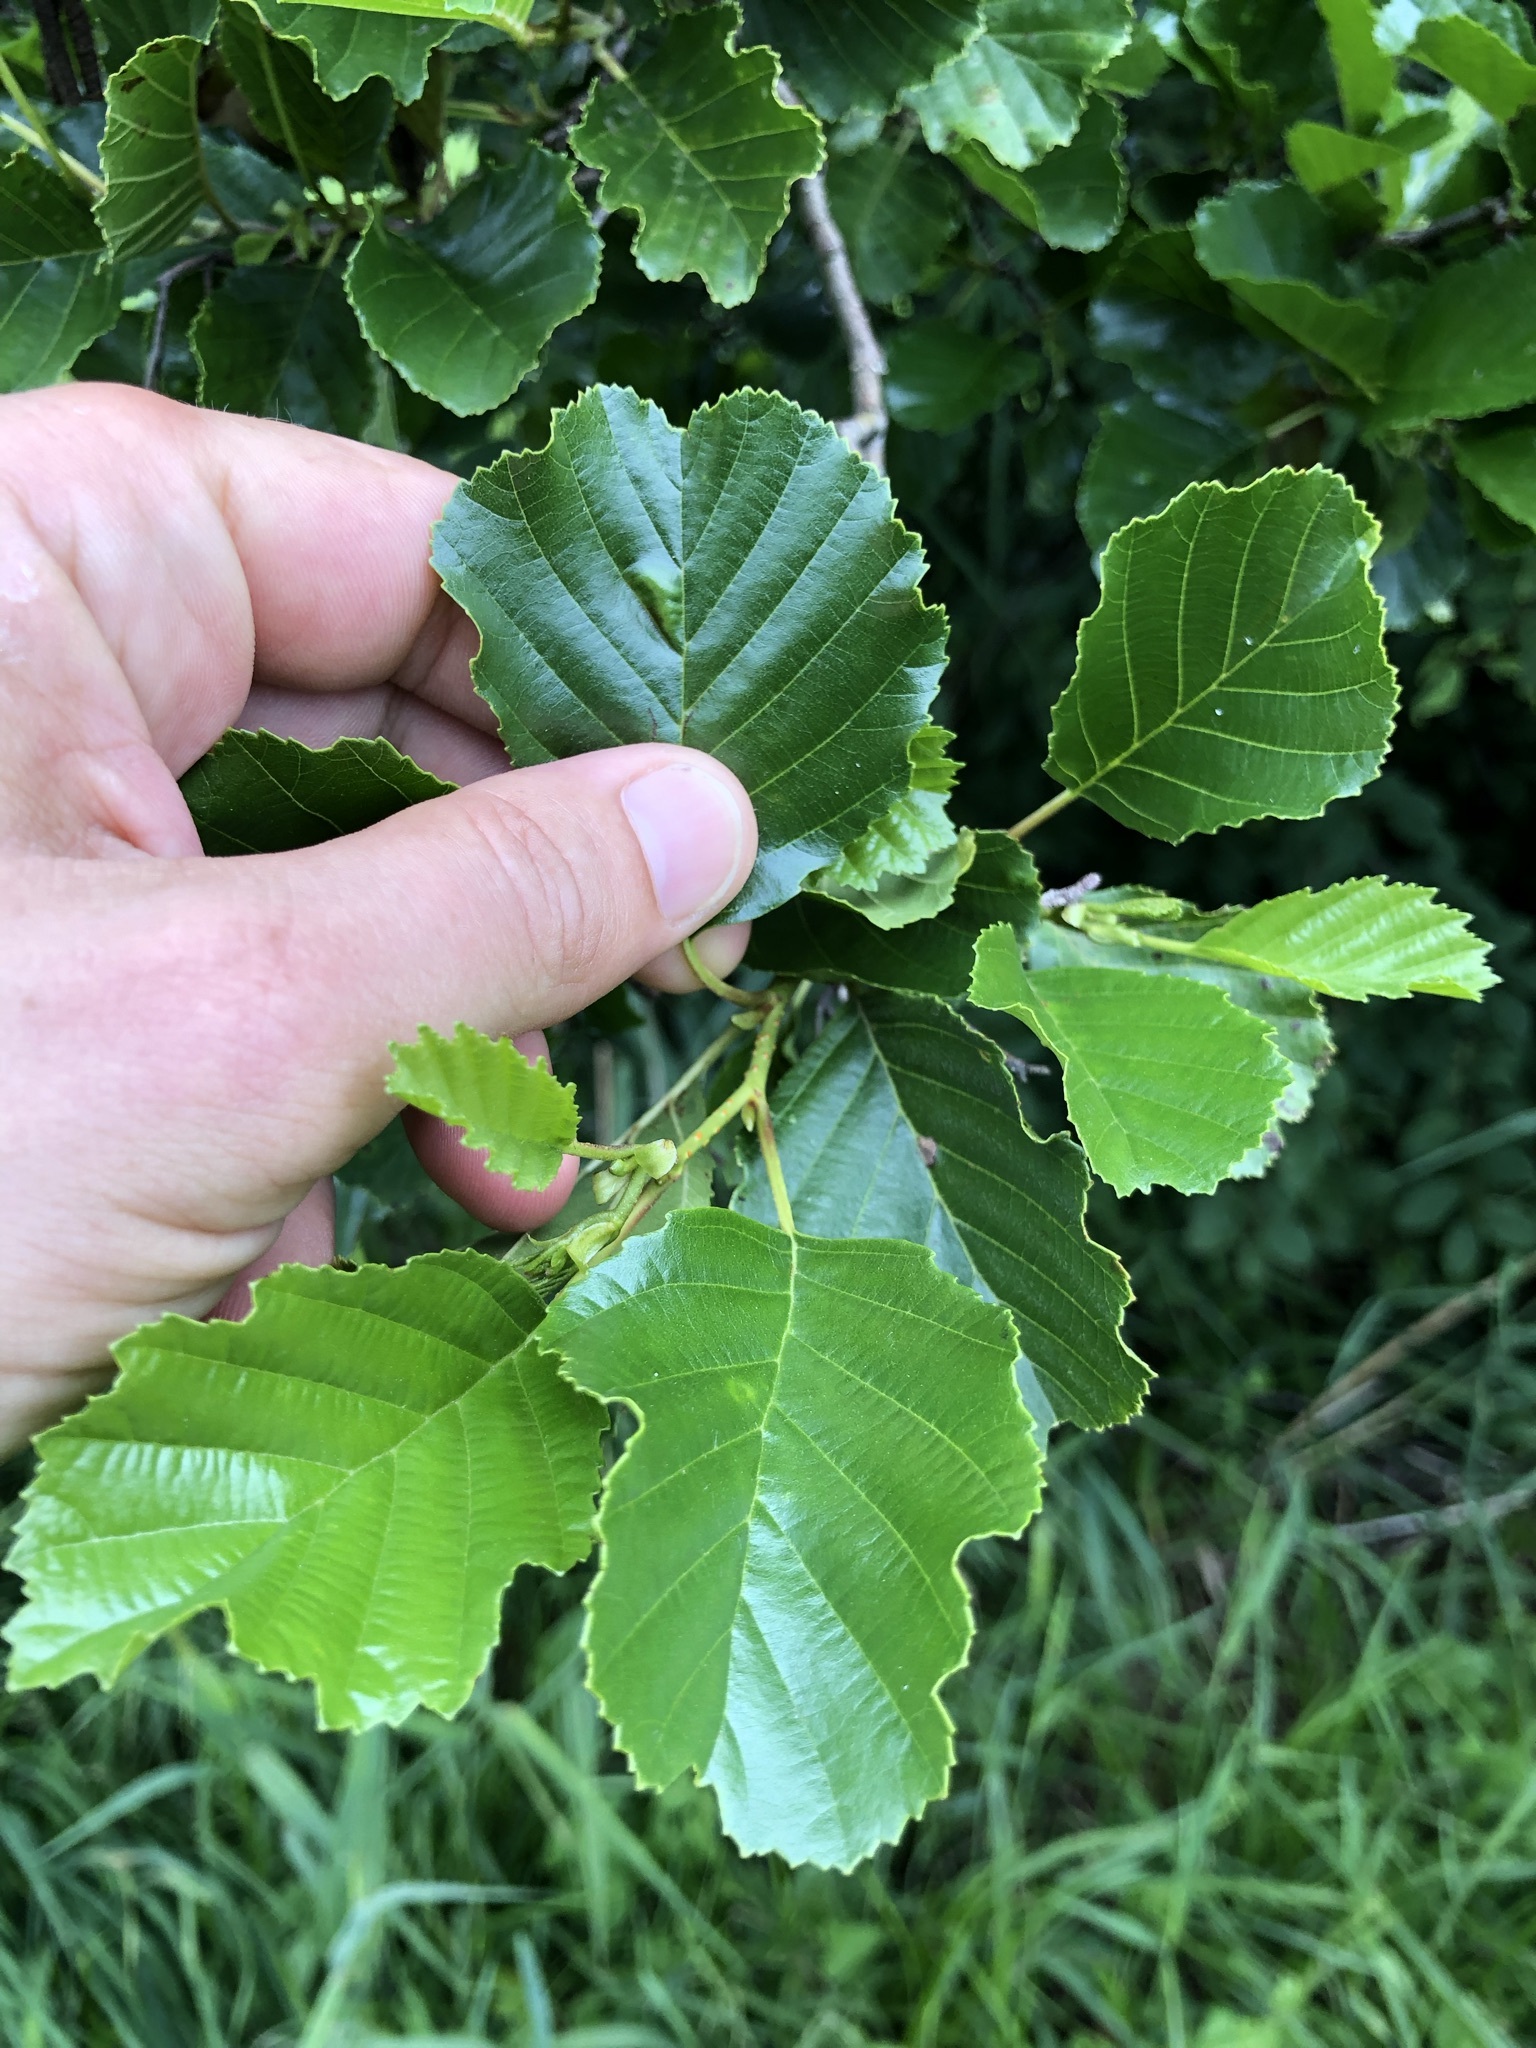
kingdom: Plantae
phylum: Tracheophyta
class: Magnoliopsida
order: Fagales
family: Betulaceae
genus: Alnus
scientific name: Alnus glutinosa
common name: Black alder
